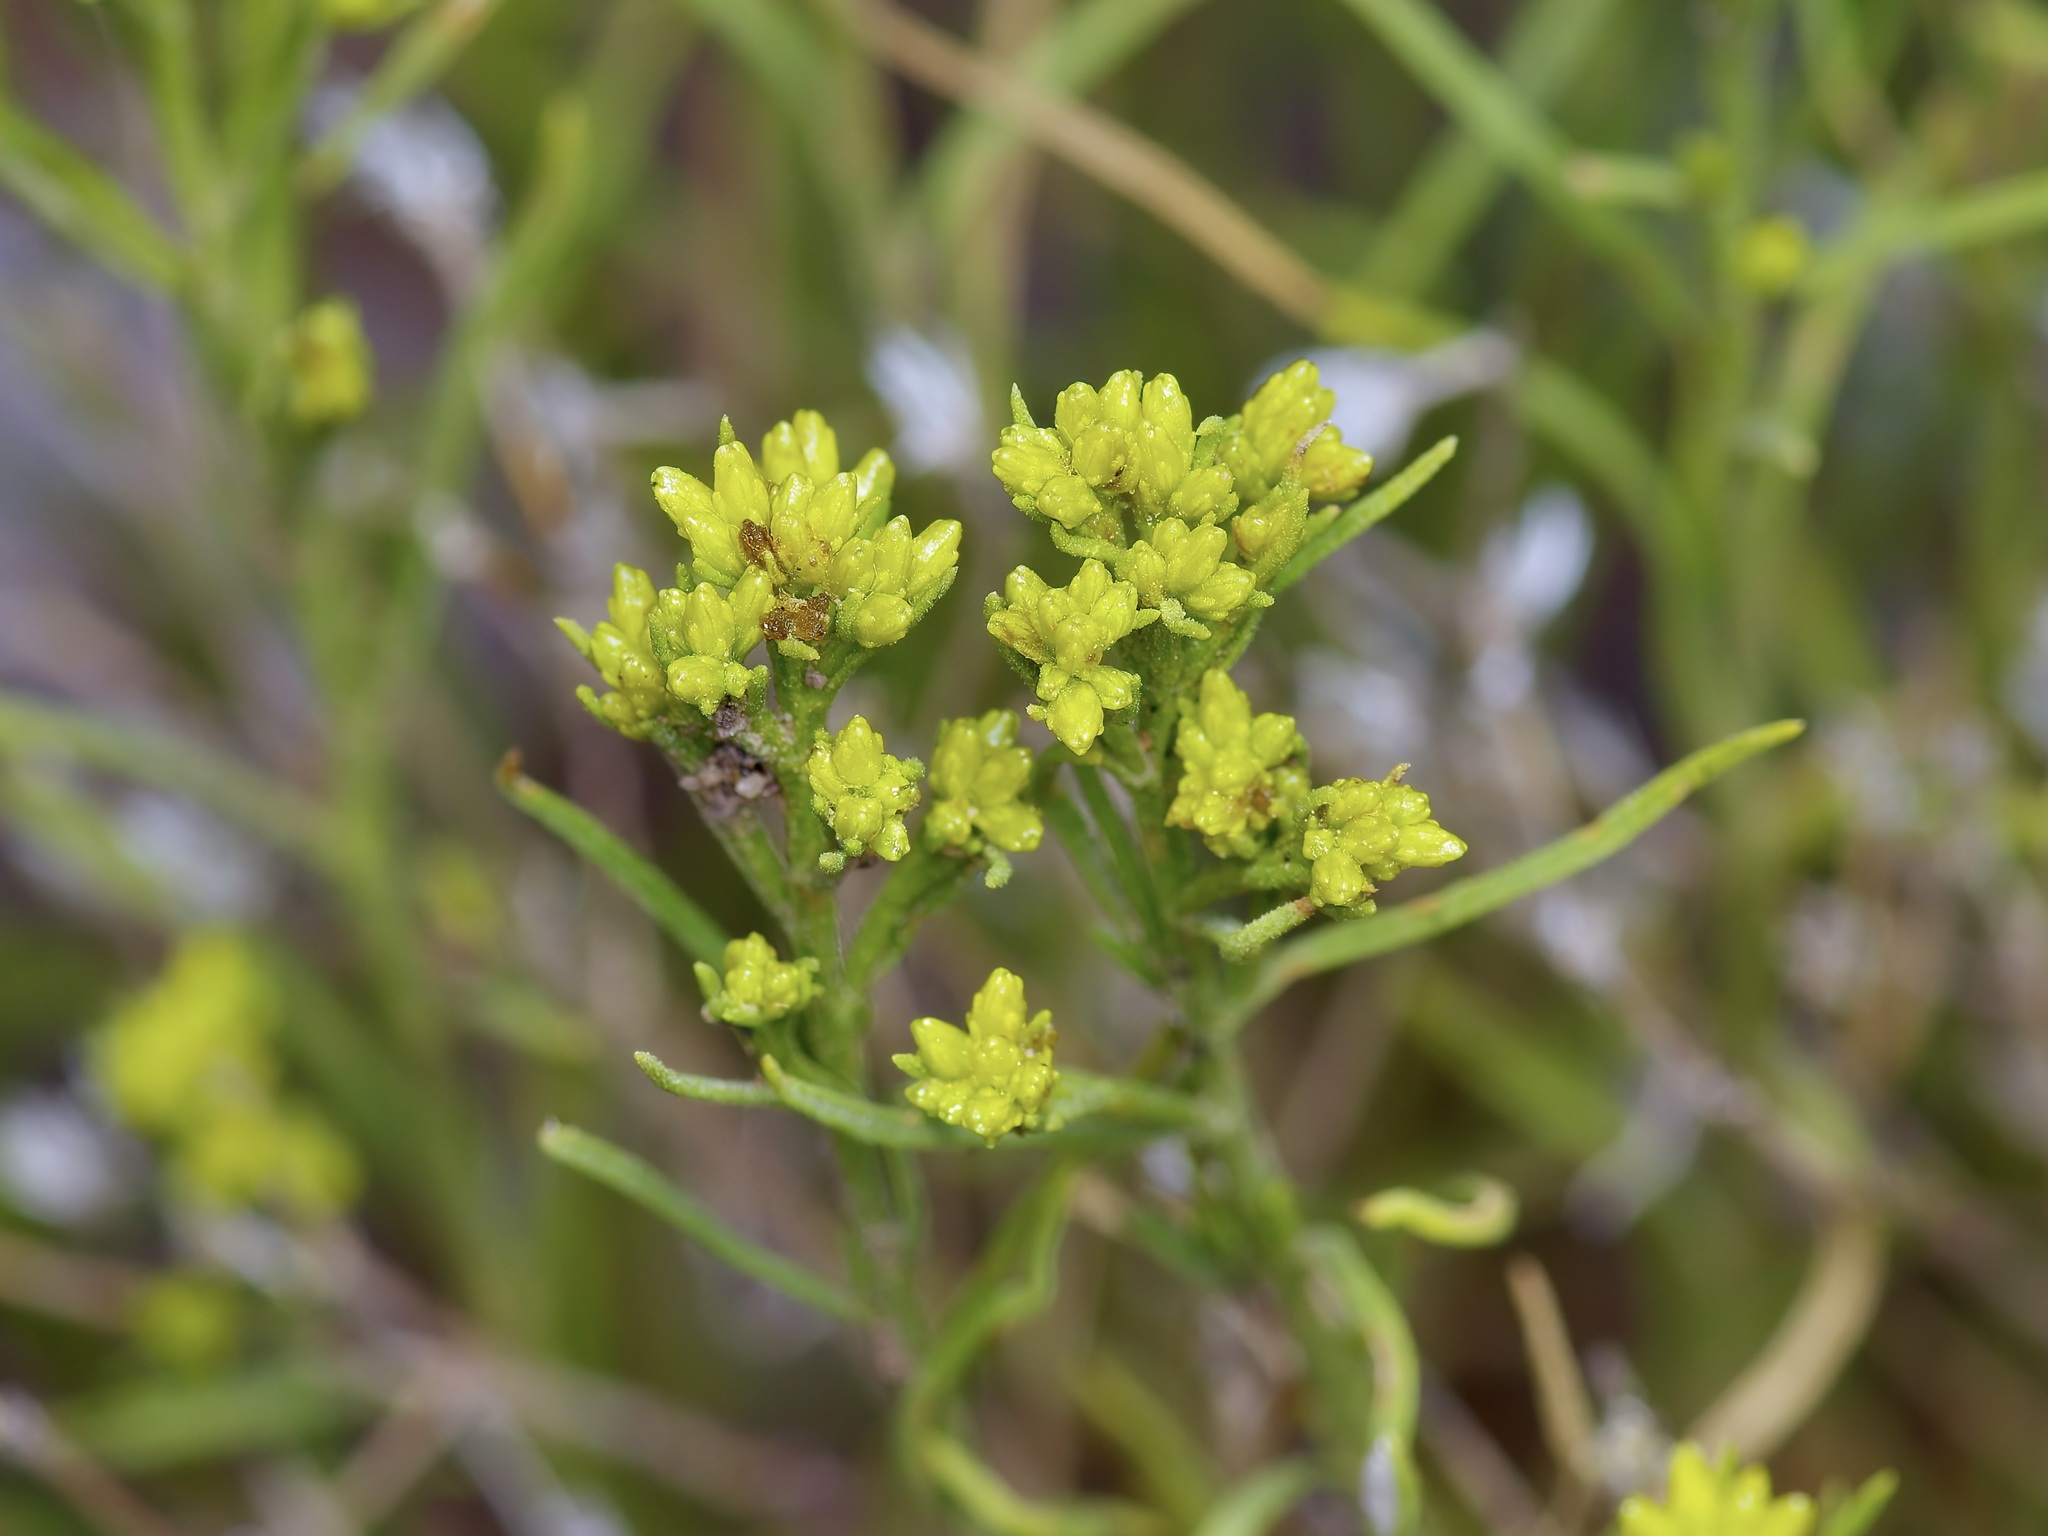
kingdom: Plantae
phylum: Tracheophyta
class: Magnoliopsida
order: Asterales
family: Asteraceae
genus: Gutierrezia
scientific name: Gutierrezia sarothrae
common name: Broom snakeweed
